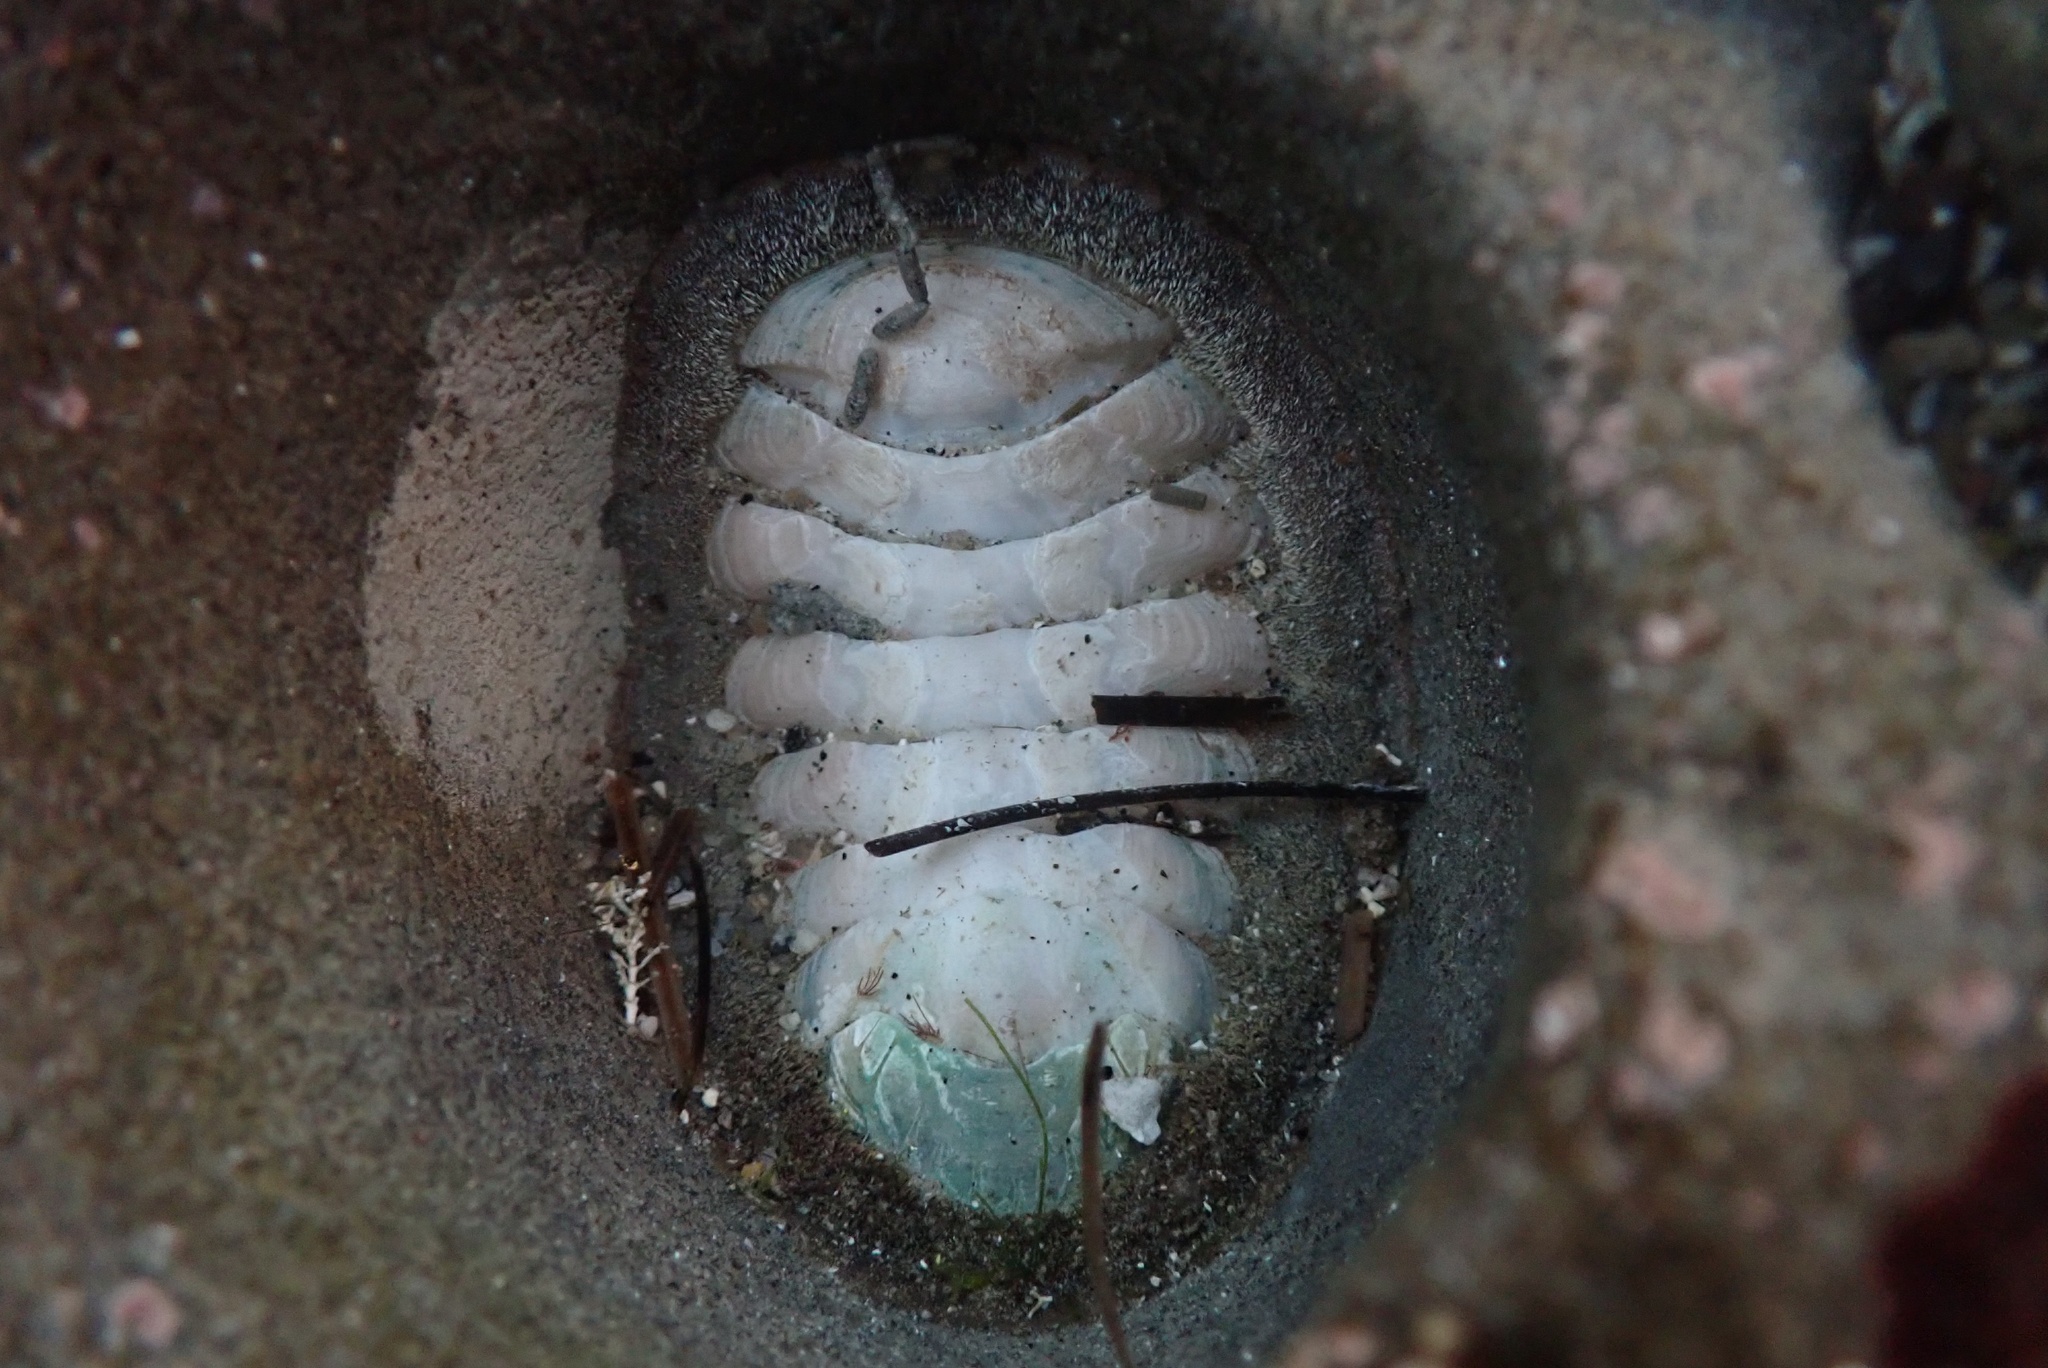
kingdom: Animalia
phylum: Mollusca
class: Polyplacophora
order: Chitonida
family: Ischnochitonidae
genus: Stenoplax
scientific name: Stenoplax conspicua
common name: Conspicuous chiton
